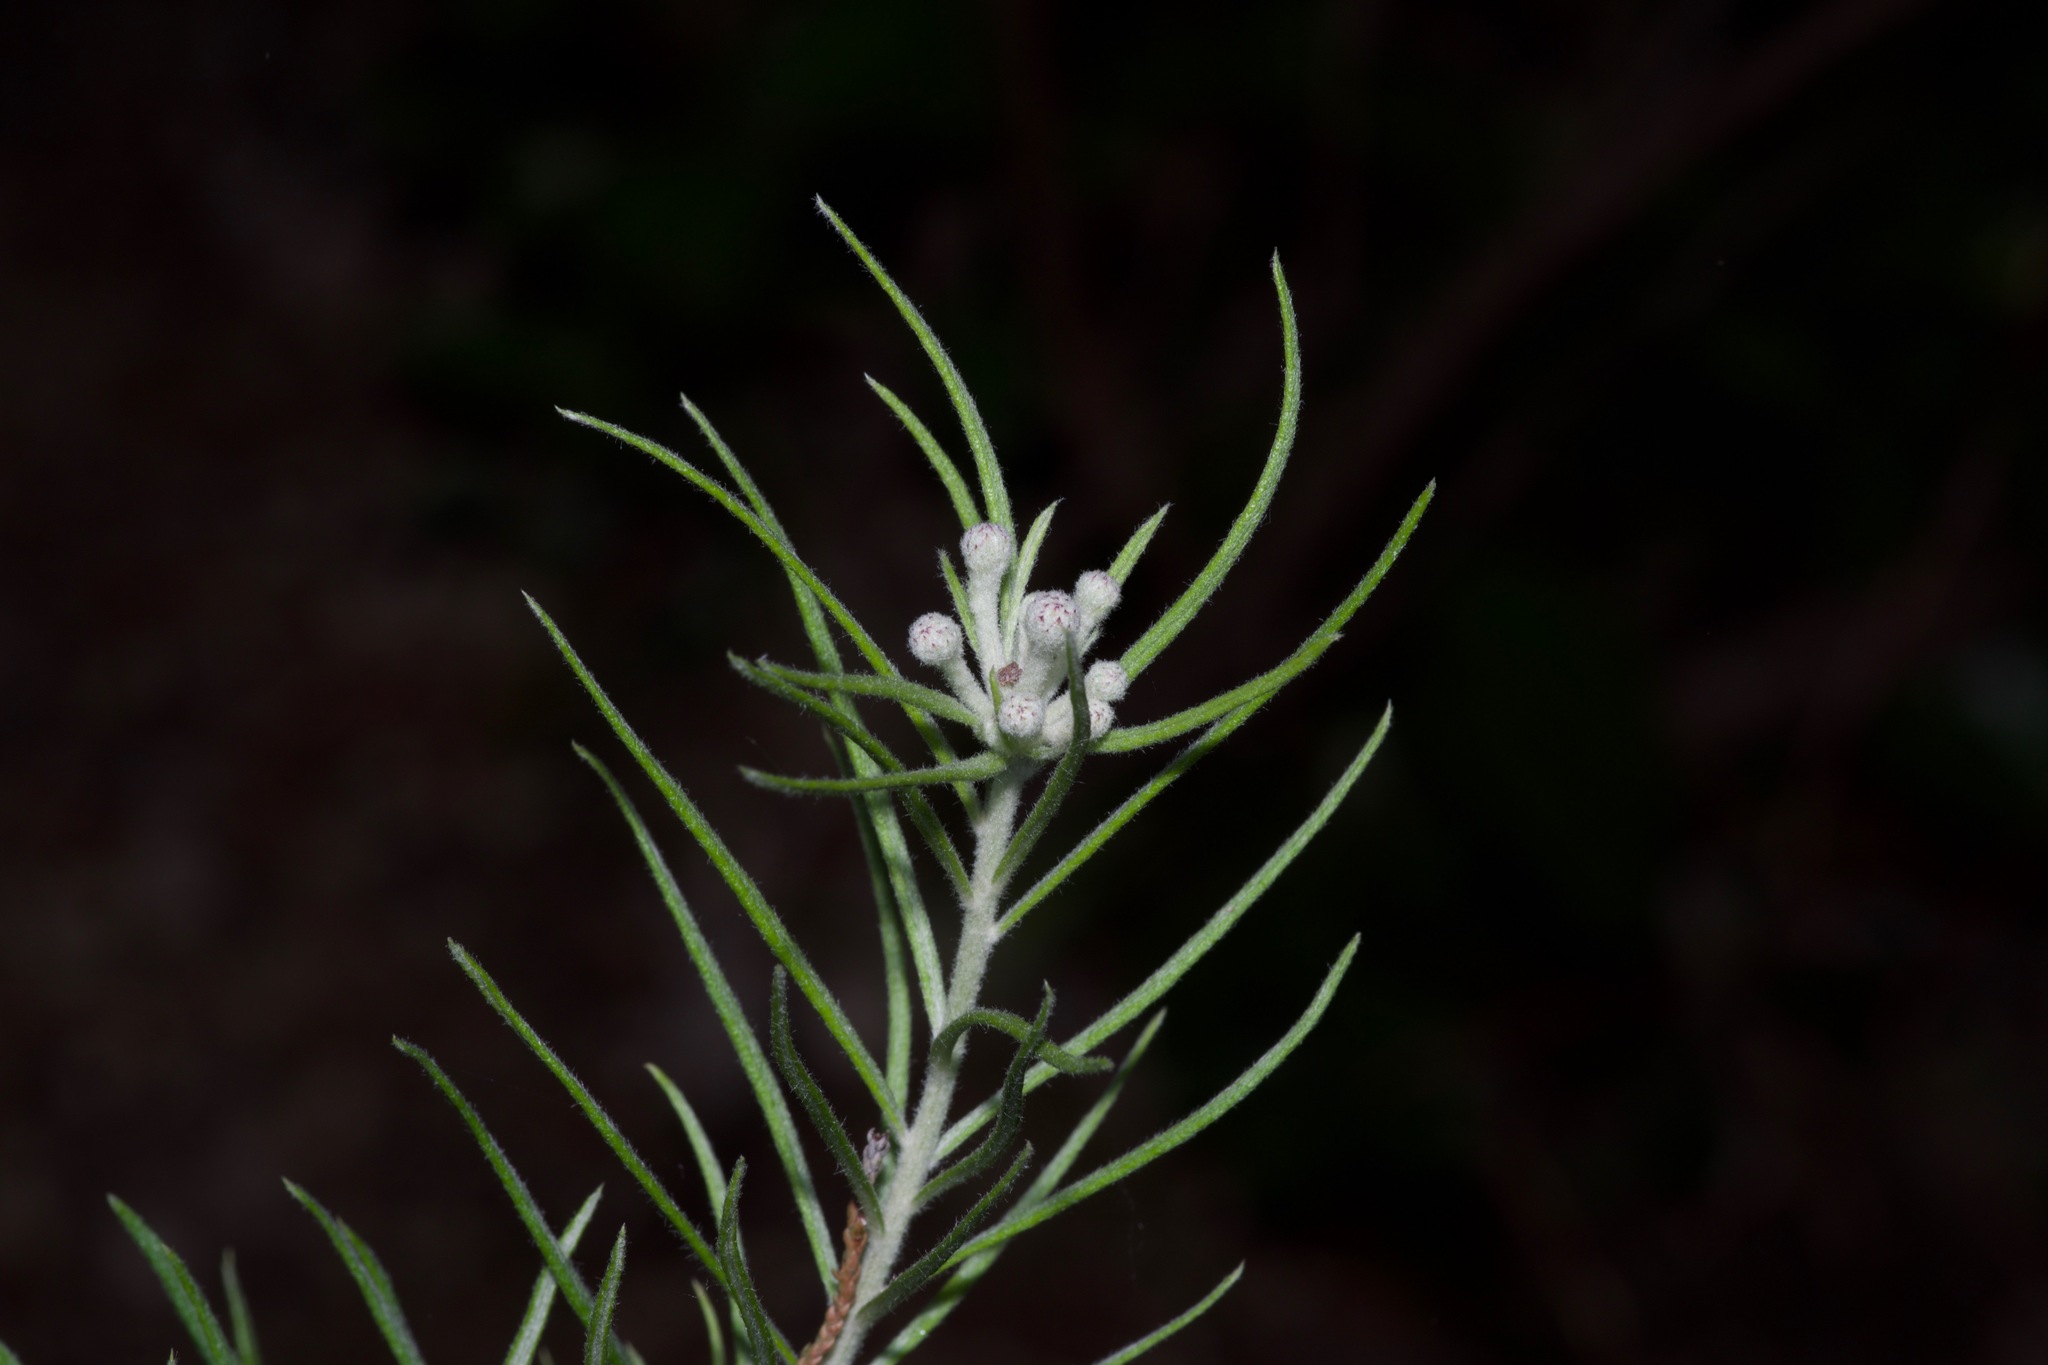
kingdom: Plantae
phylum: Tracheophyta
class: Magnoliopsida
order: Asterales
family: Asteraceae
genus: Vernonia
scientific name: Vernonia lindheimeri
